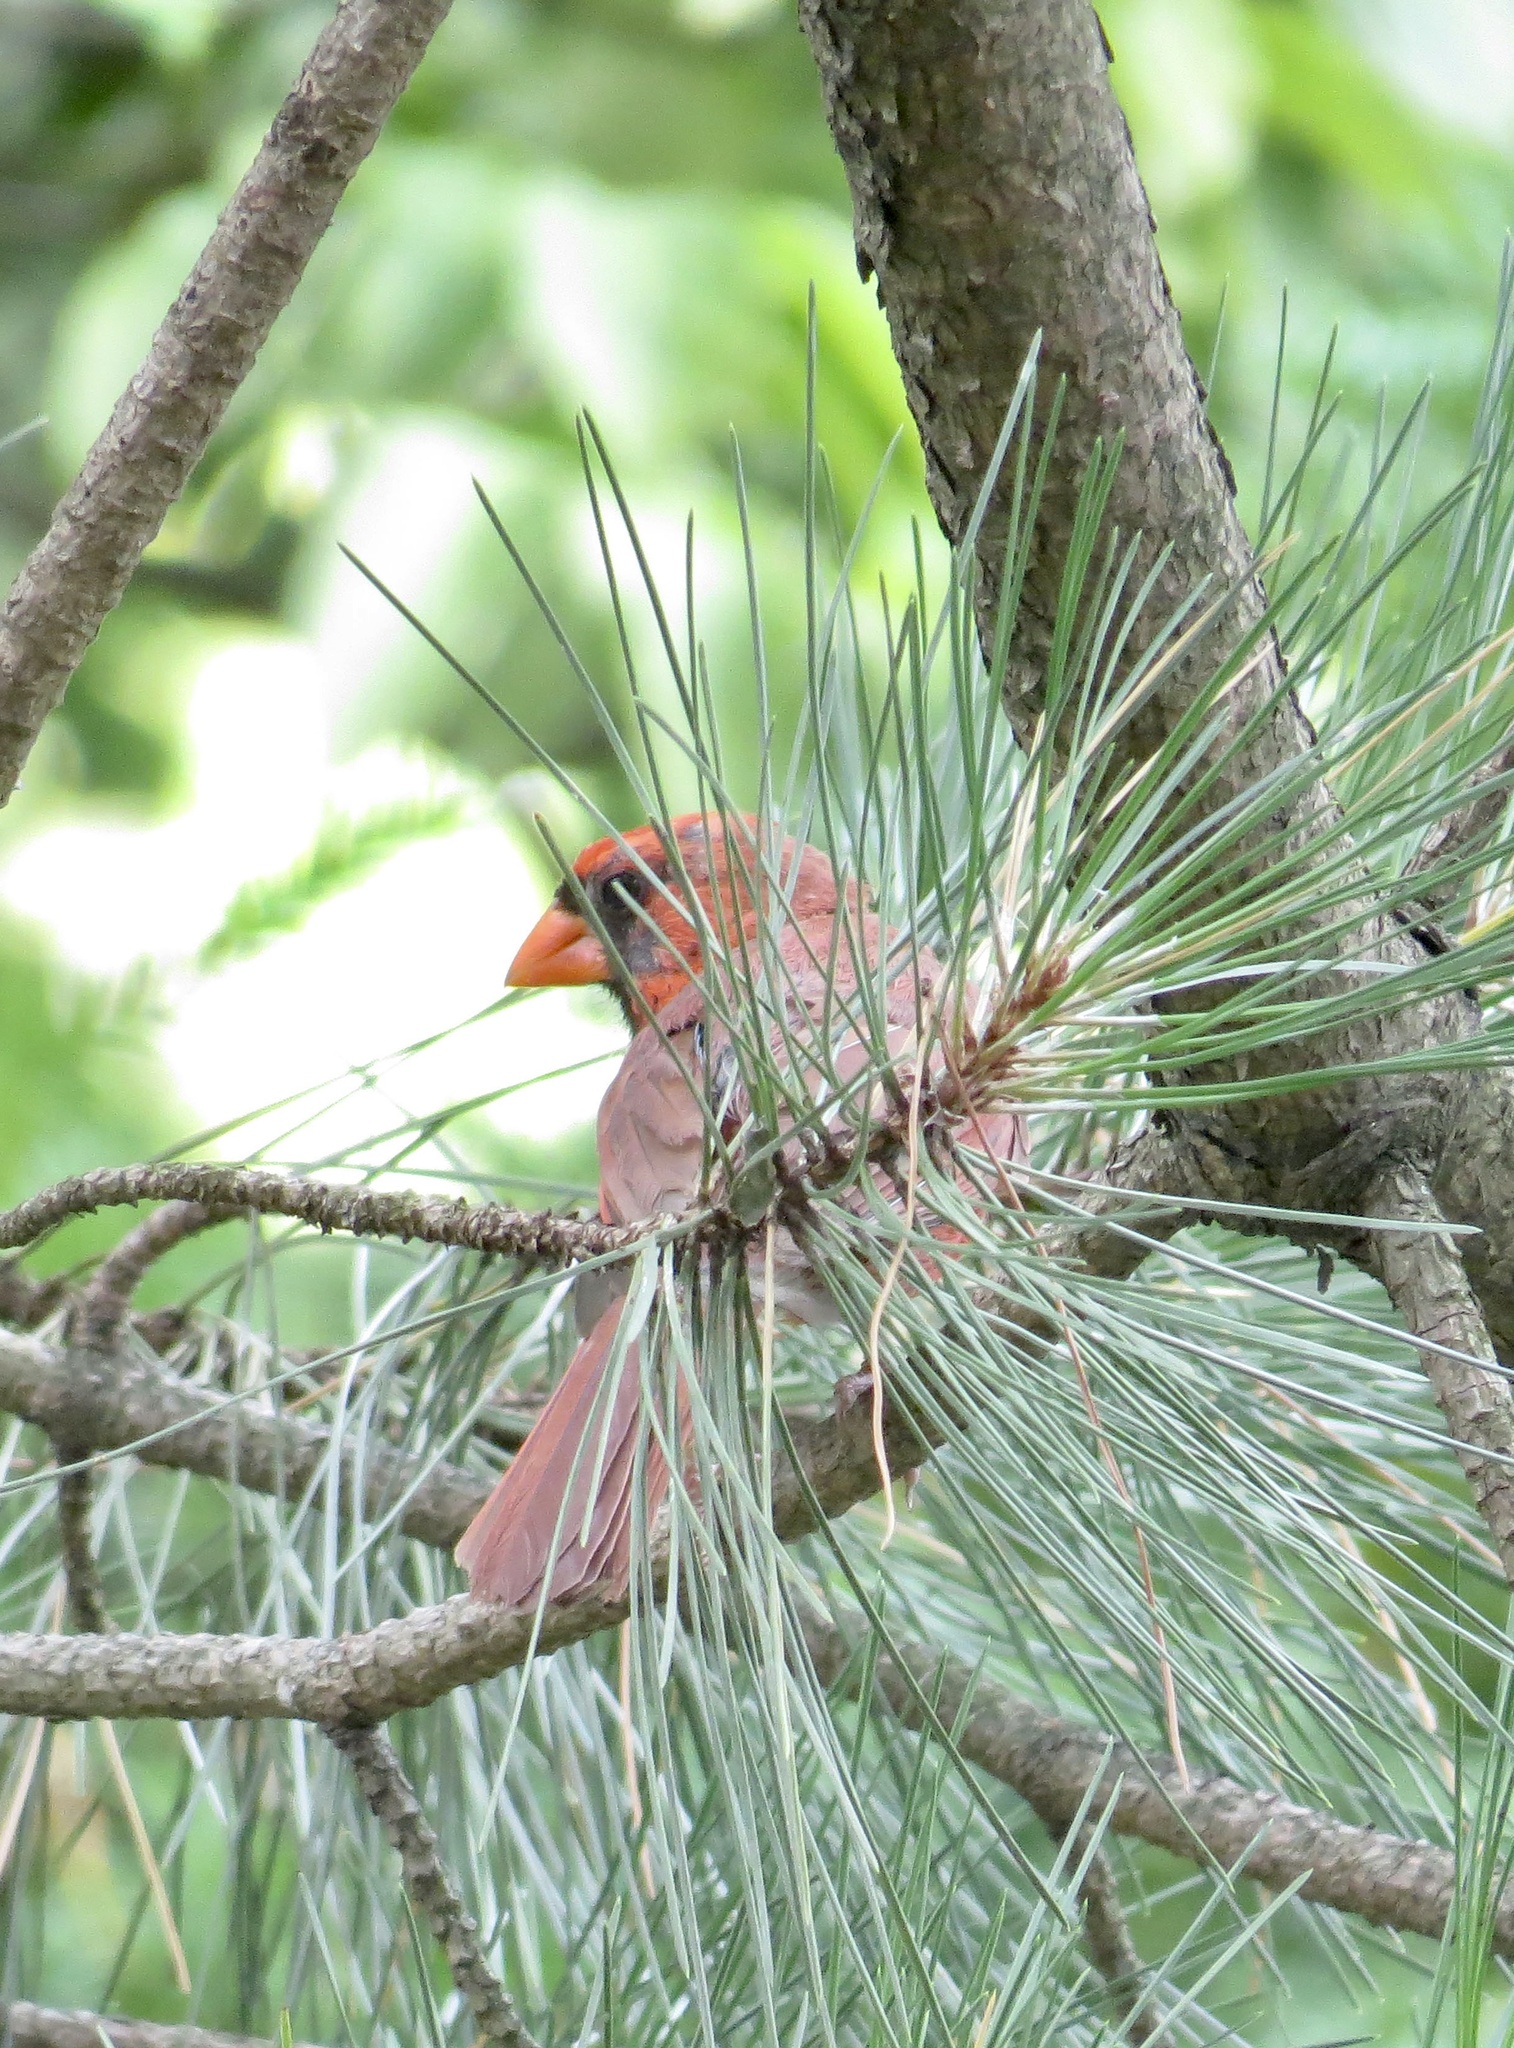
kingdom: Animalia
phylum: Chordata
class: Aves
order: Passeriformes
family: Cardinalidae
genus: Cardinalis
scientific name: Cardinalis cardinalis
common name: Northern cardinal
